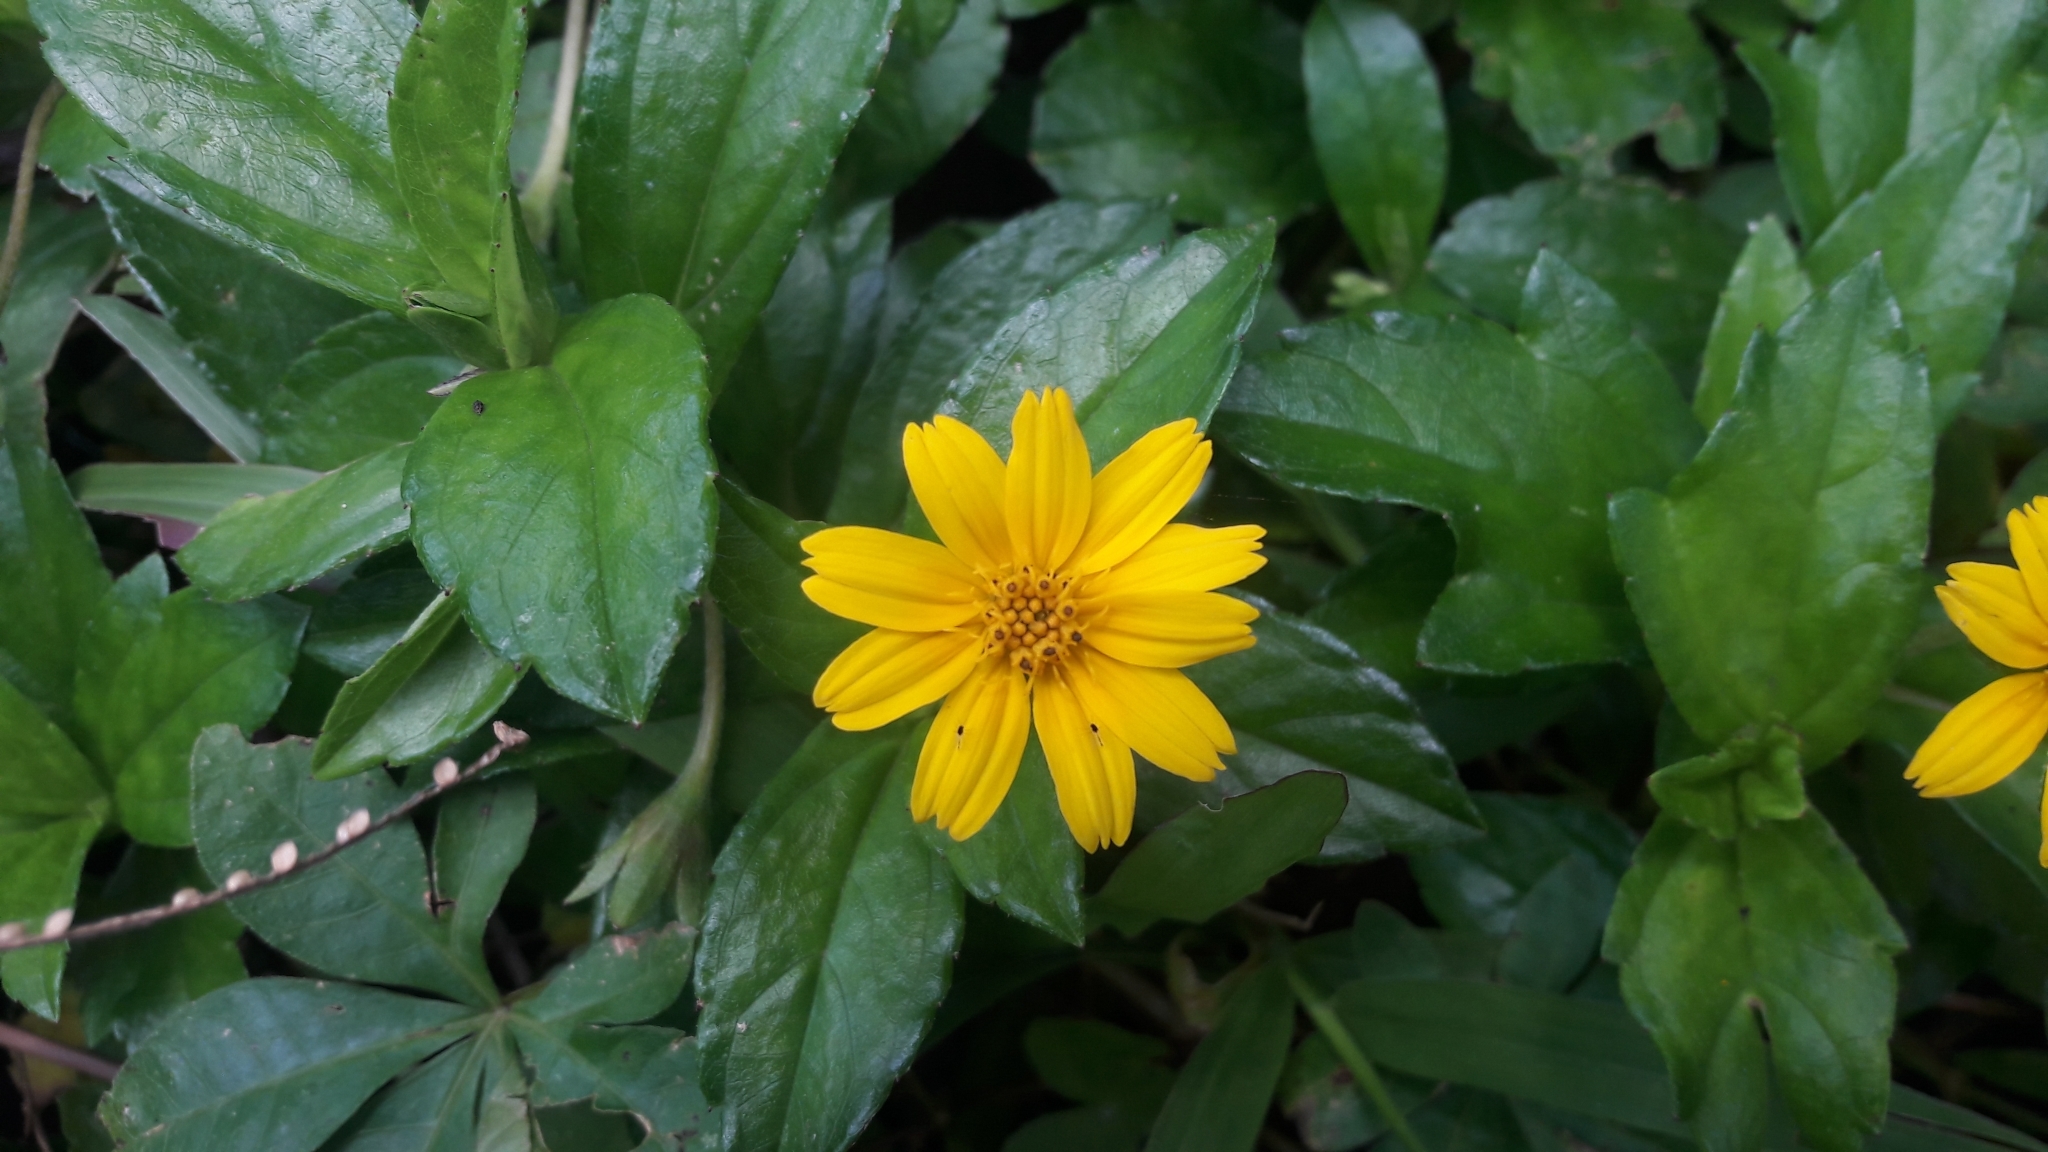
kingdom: Plantae
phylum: Tracheophyta
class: Magnoliopsida
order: Asterales
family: Asteraceae
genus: Sphagneticola
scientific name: Sphagneticola trilobata
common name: Bay biscayne creeping-oxeye
